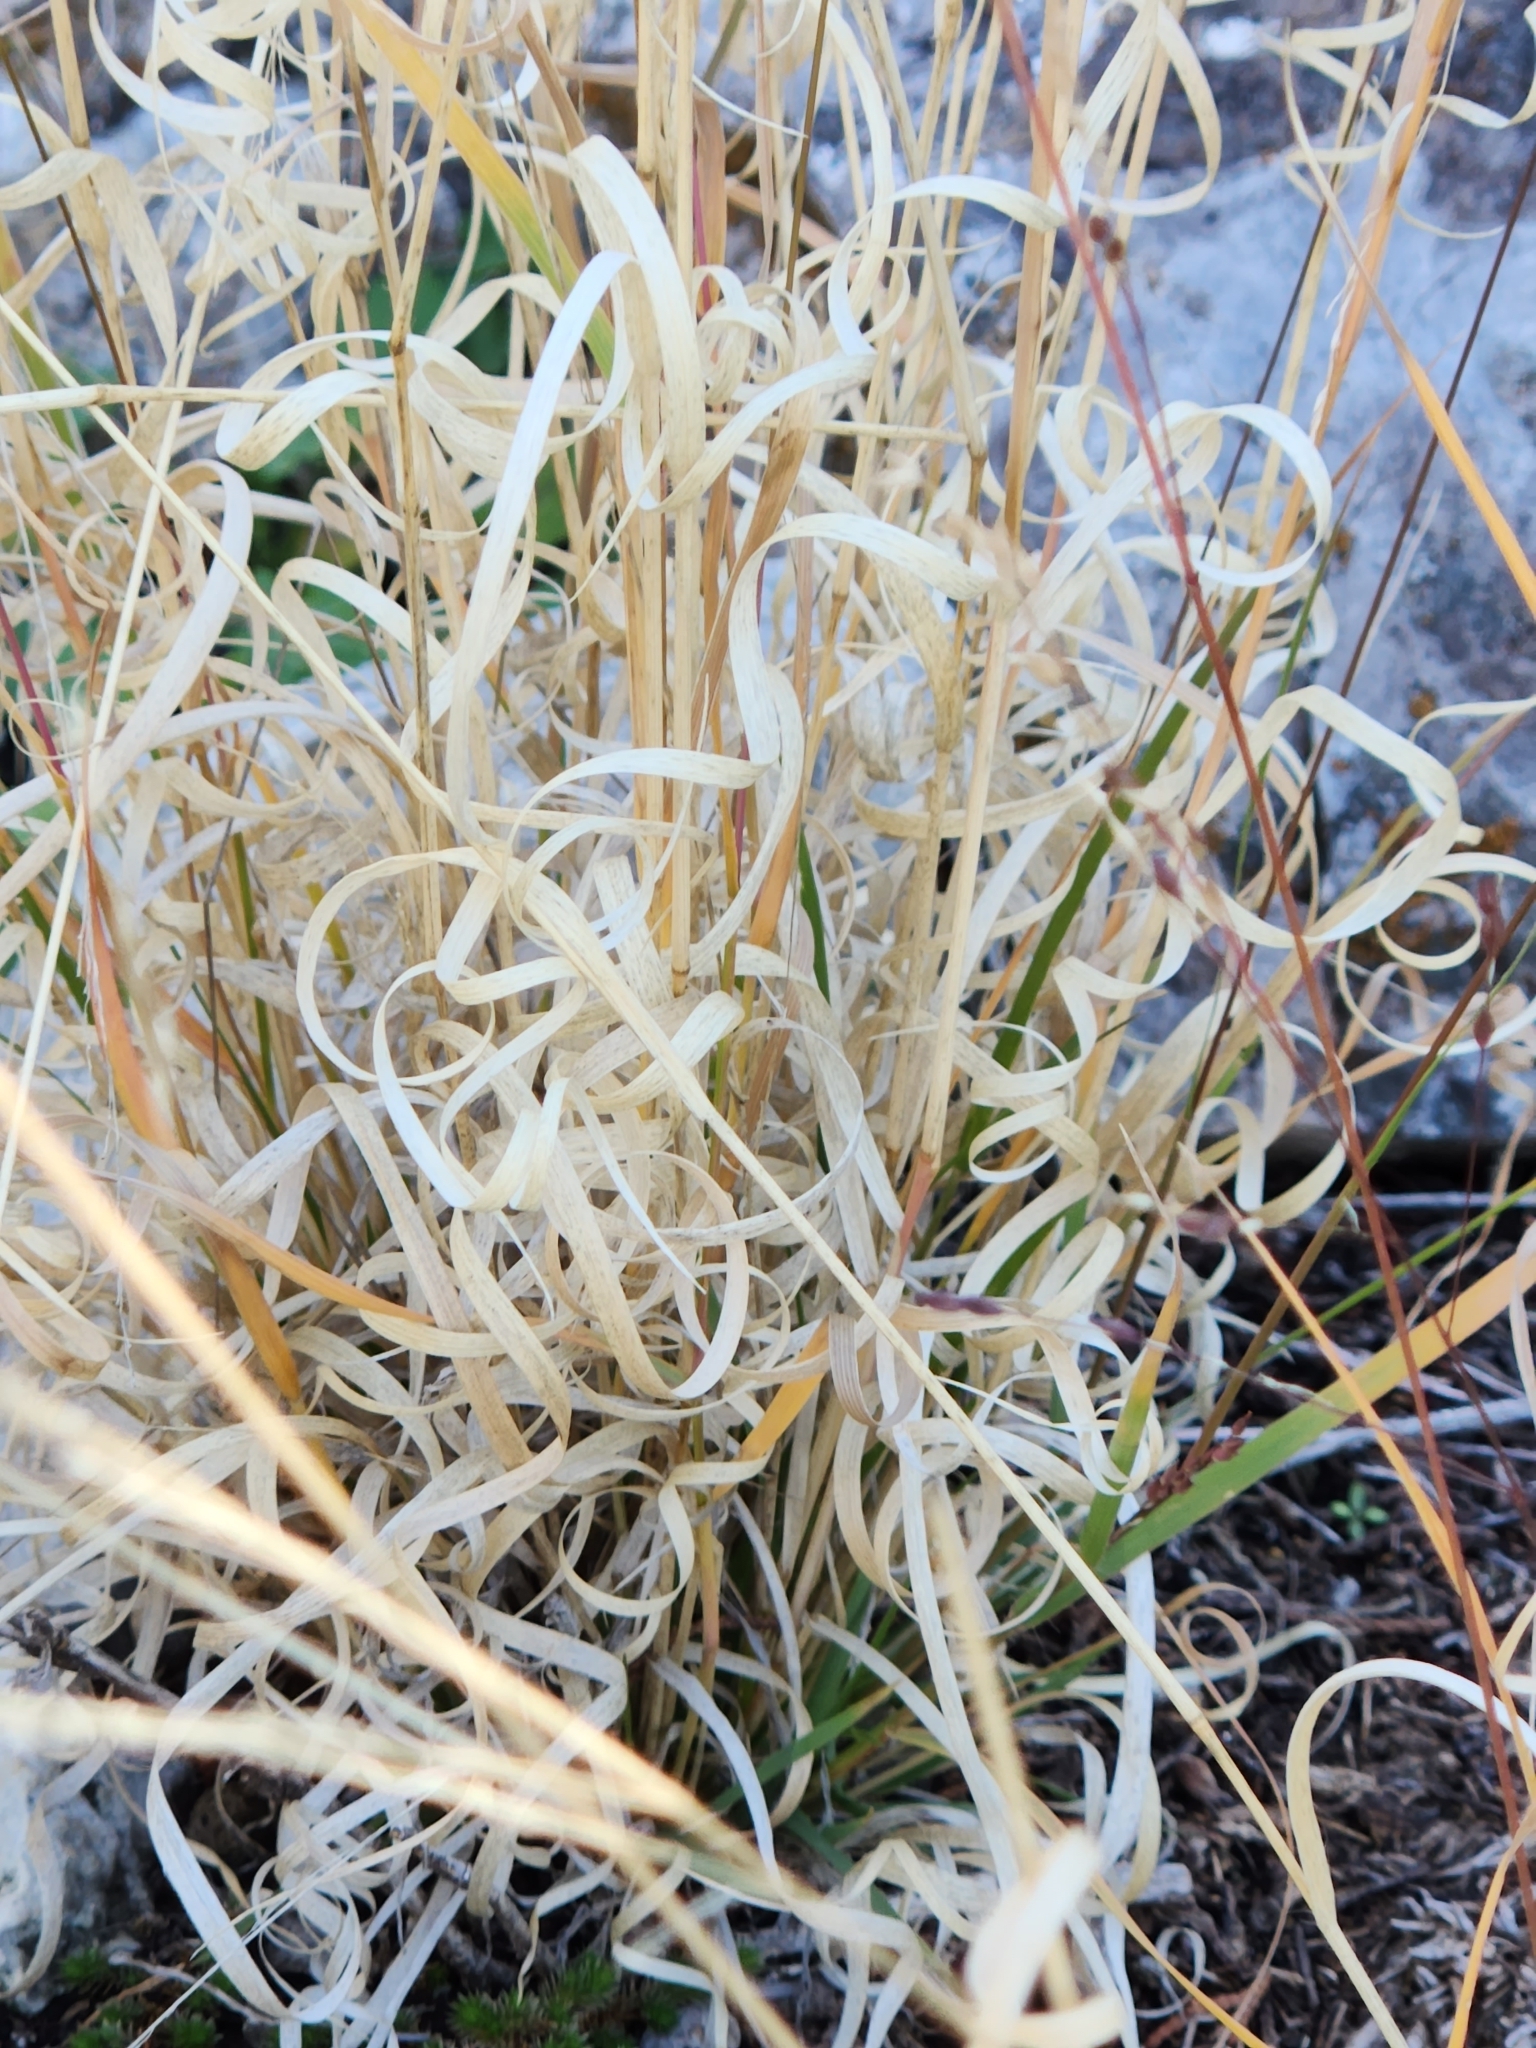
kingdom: Plantae
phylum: Tracheophyta
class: Liliopsida
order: Poales
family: Poaceae
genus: Panicum
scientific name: Panicum hallii
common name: Hall's witchgrass
